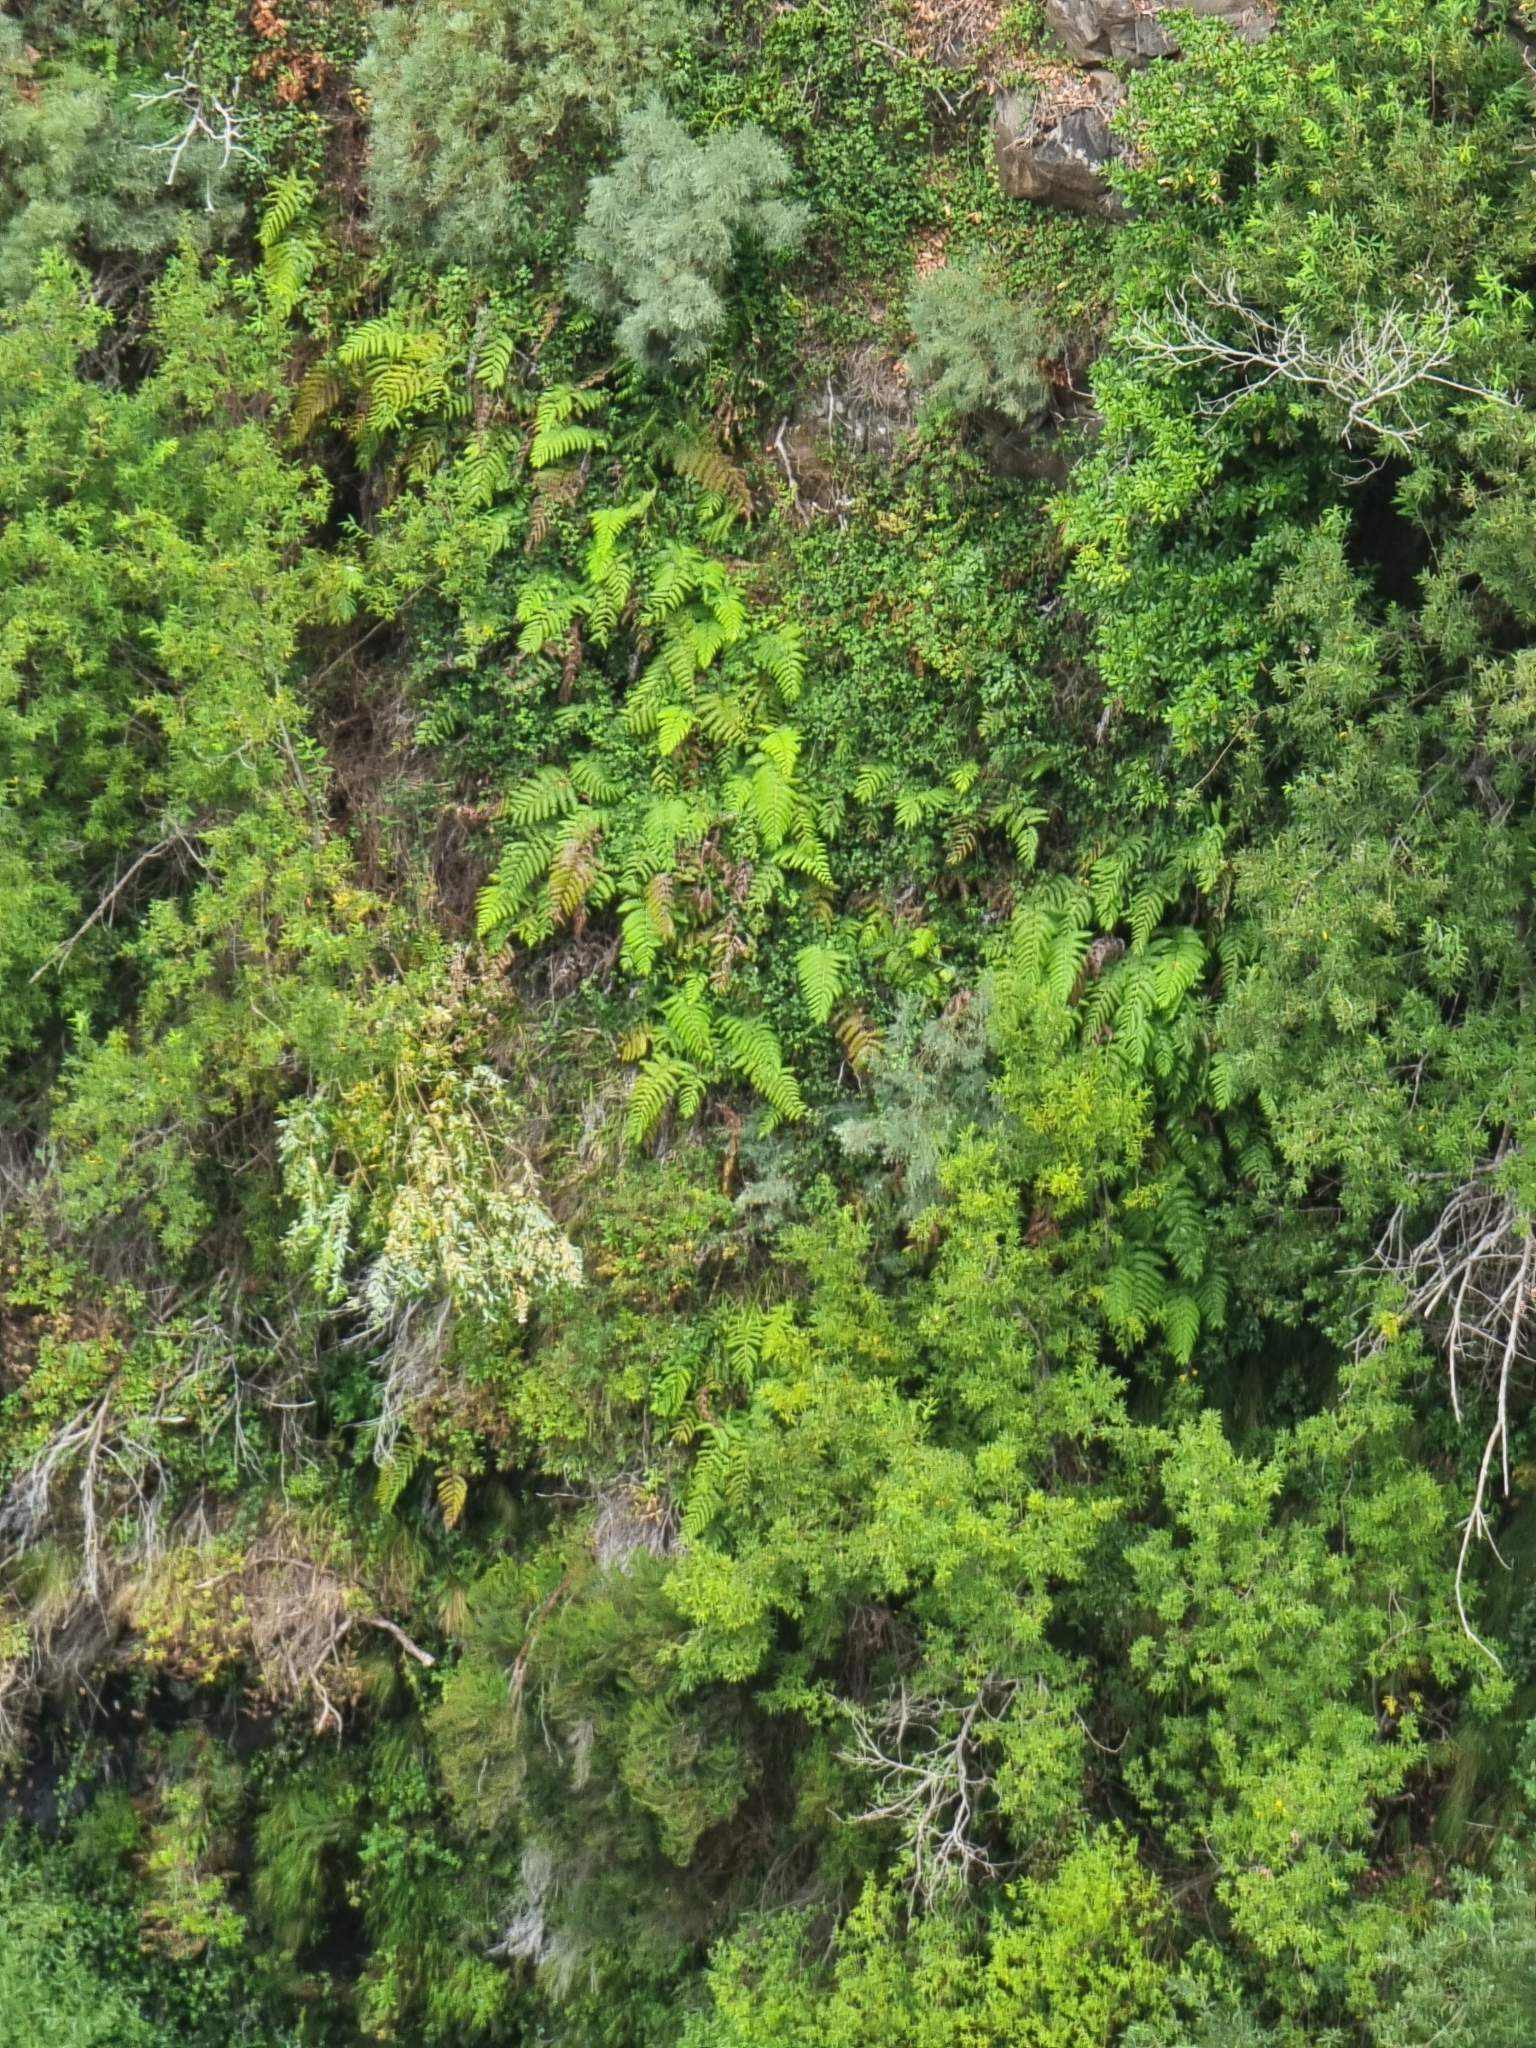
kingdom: Plantae
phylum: Tracheophyta
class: Polypodiopsida
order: Polypodiales
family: Blechnaceae
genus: Woodwardia
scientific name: Woodwardia radicans
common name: Rooting chainfern
